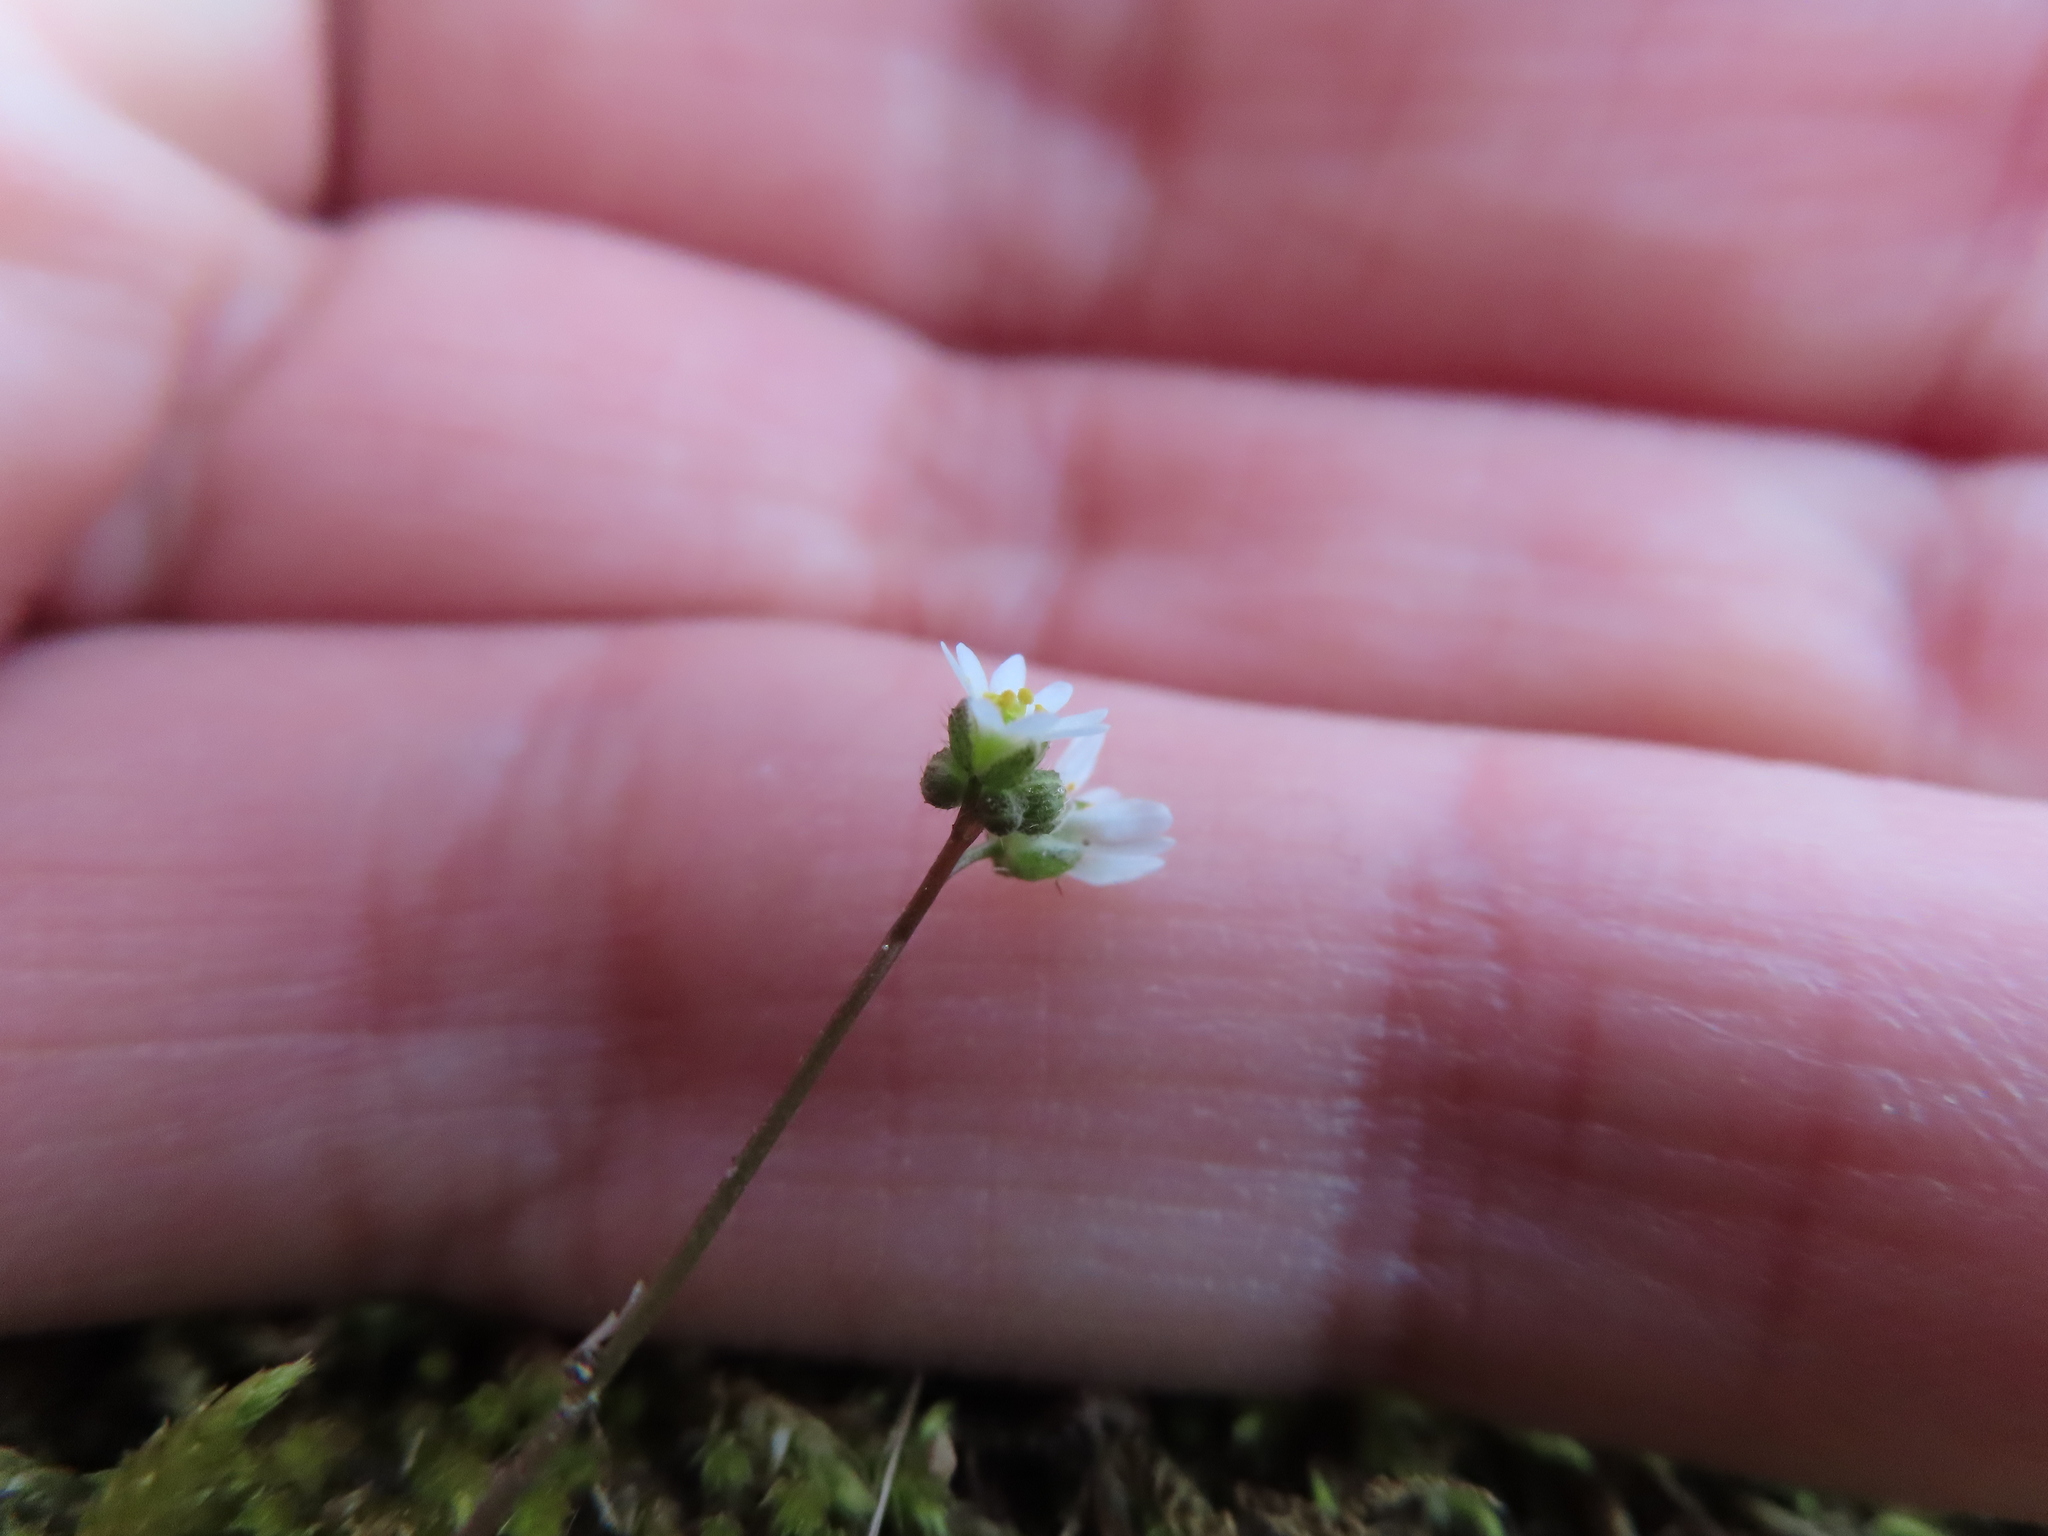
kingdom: Plantae
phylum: Tracheophyta
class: Magnoliopsida
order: Brassicales
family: Brassicaceae
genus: Draba
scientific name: Draba verna
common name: Spring draba
